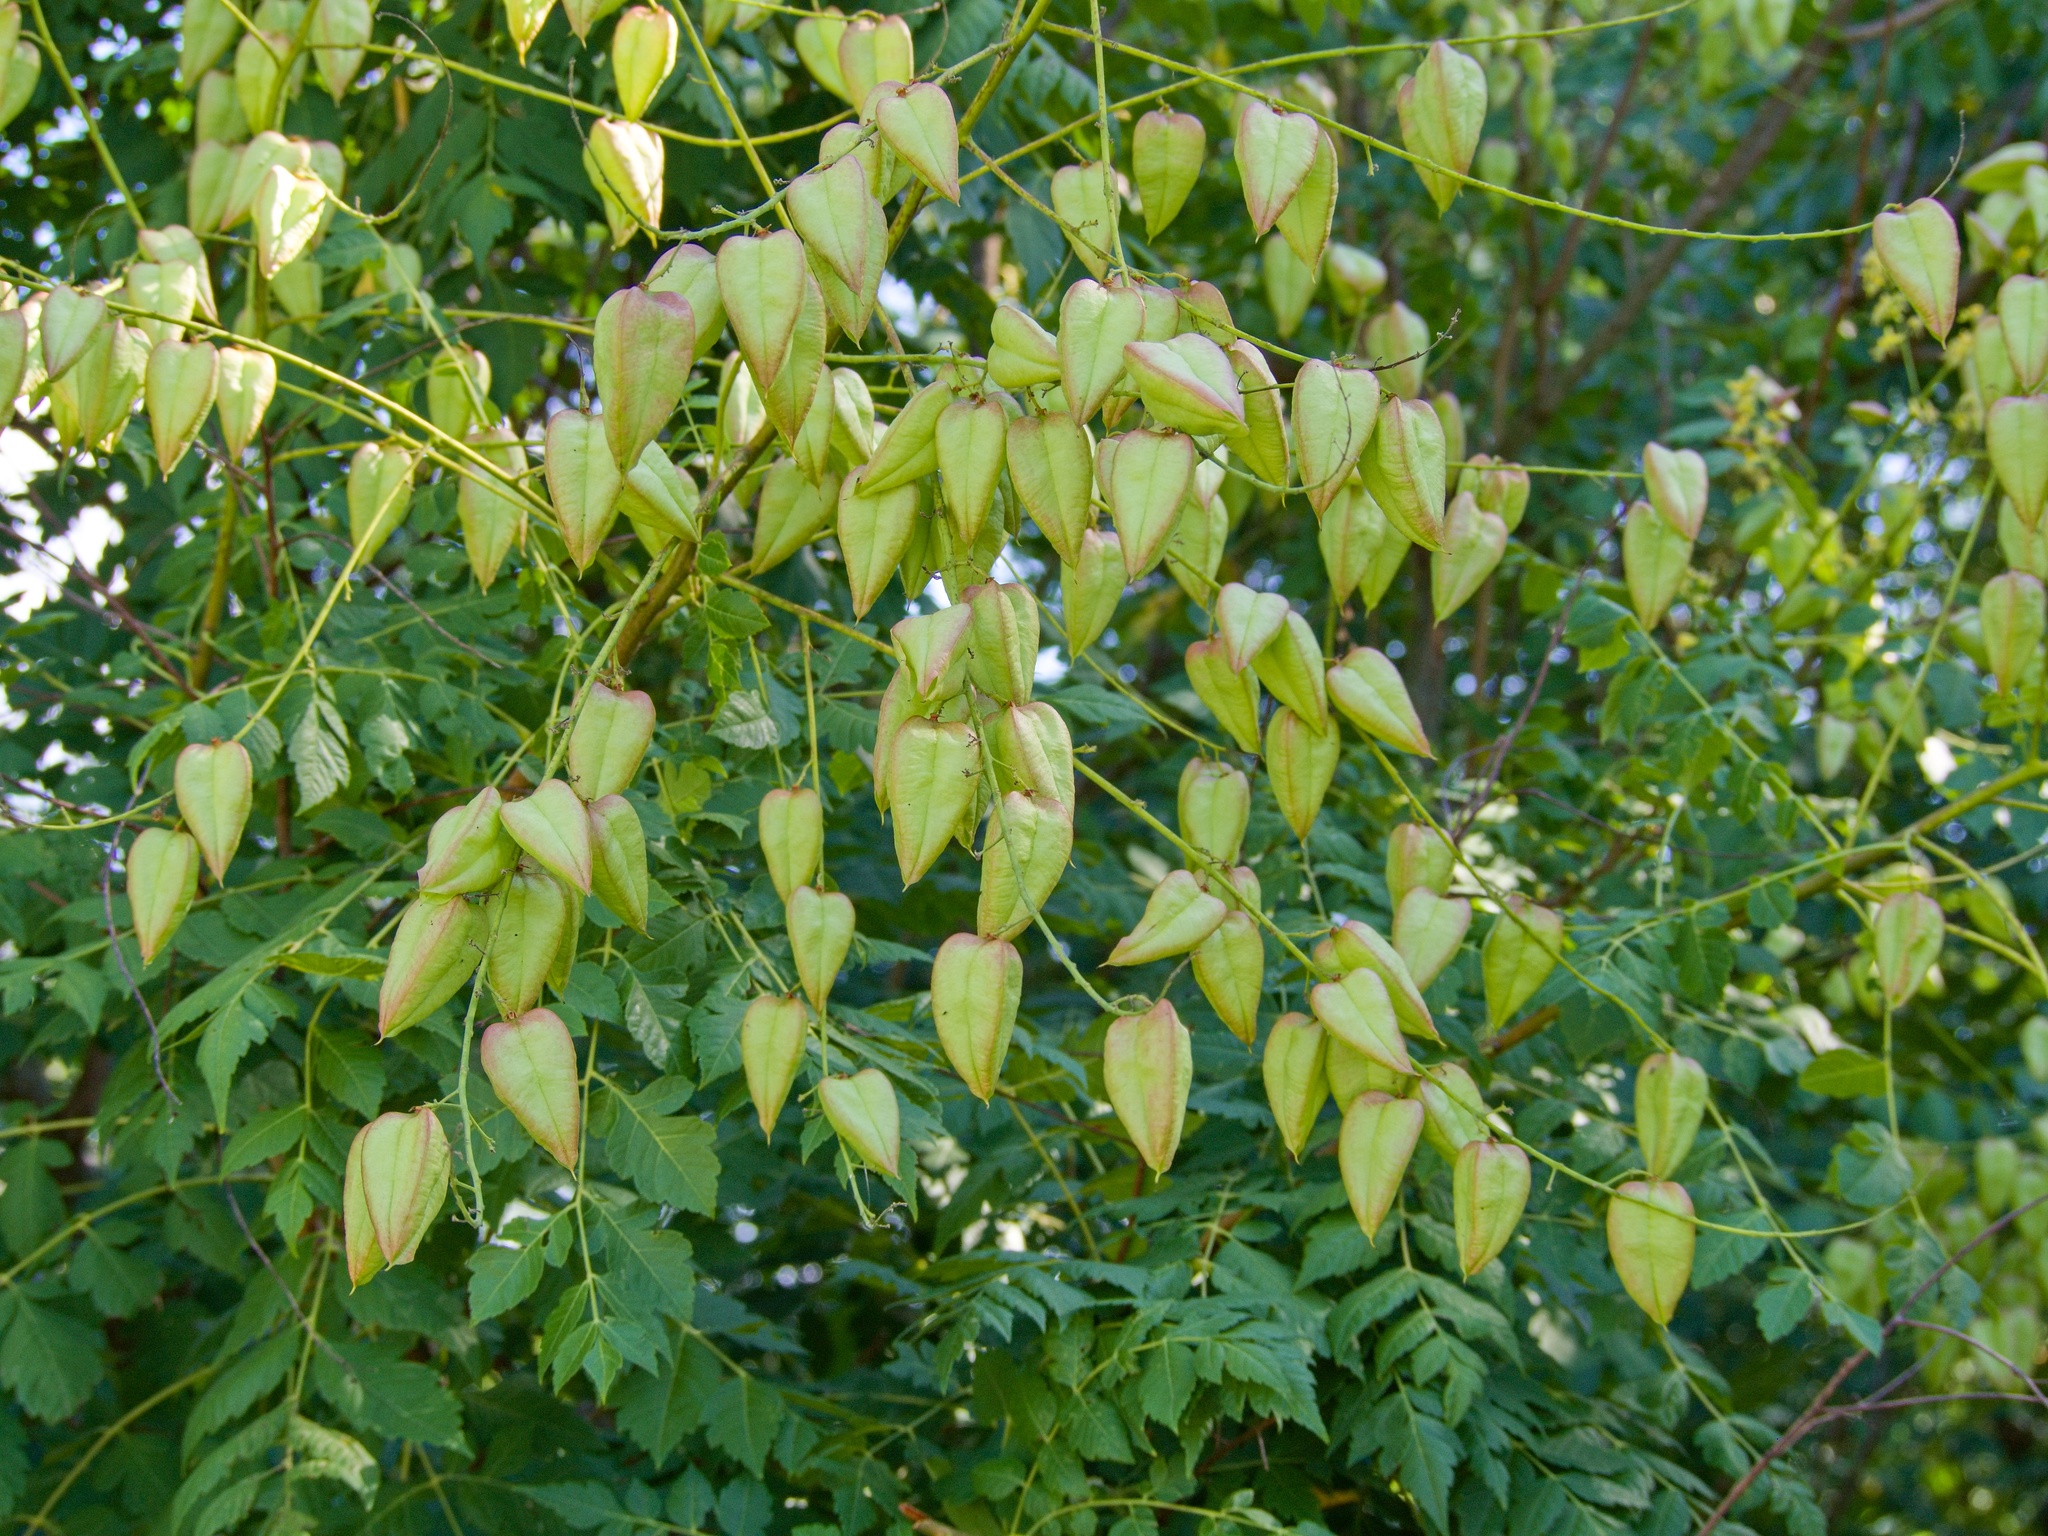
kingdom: Plantae
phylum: Tracheophyta
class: Magnoliopsida
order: Sapindales
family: Sapindaceae
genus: Koelreuteria
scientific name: Koelreuteria paniculata
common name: Pride-of-india
